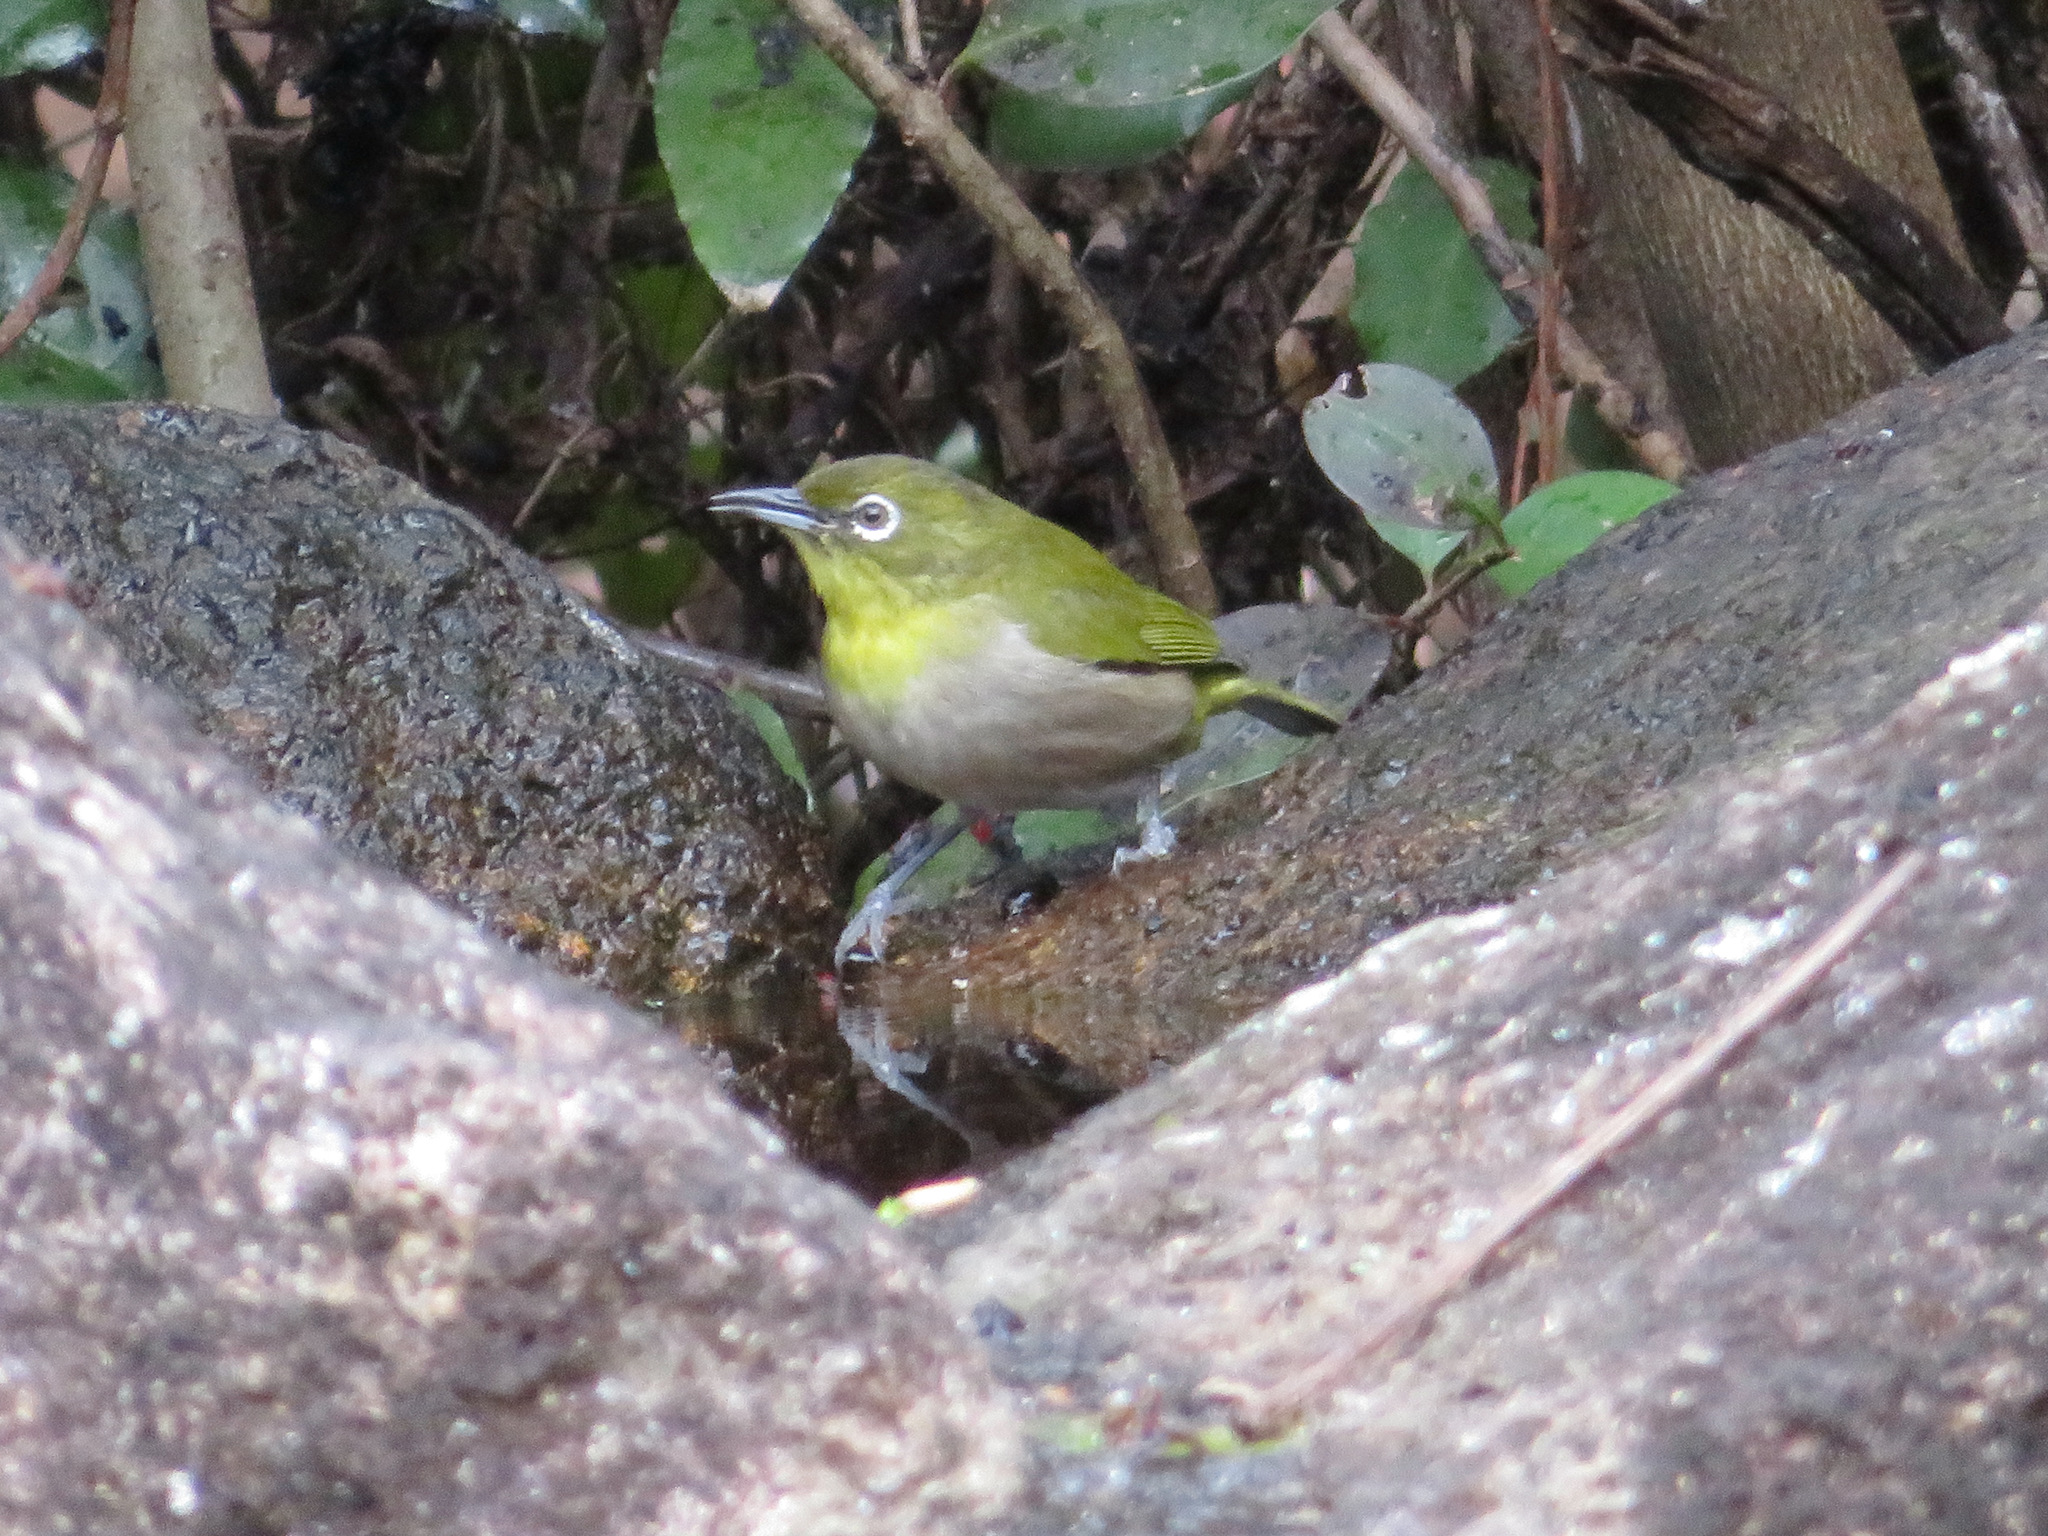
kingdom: Animalia
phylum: Chordata
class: Aves
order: Passeriformes
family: Zosteropidae
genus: Zosterops
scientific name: Zosterops japonicus
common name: Japanese white-eye
